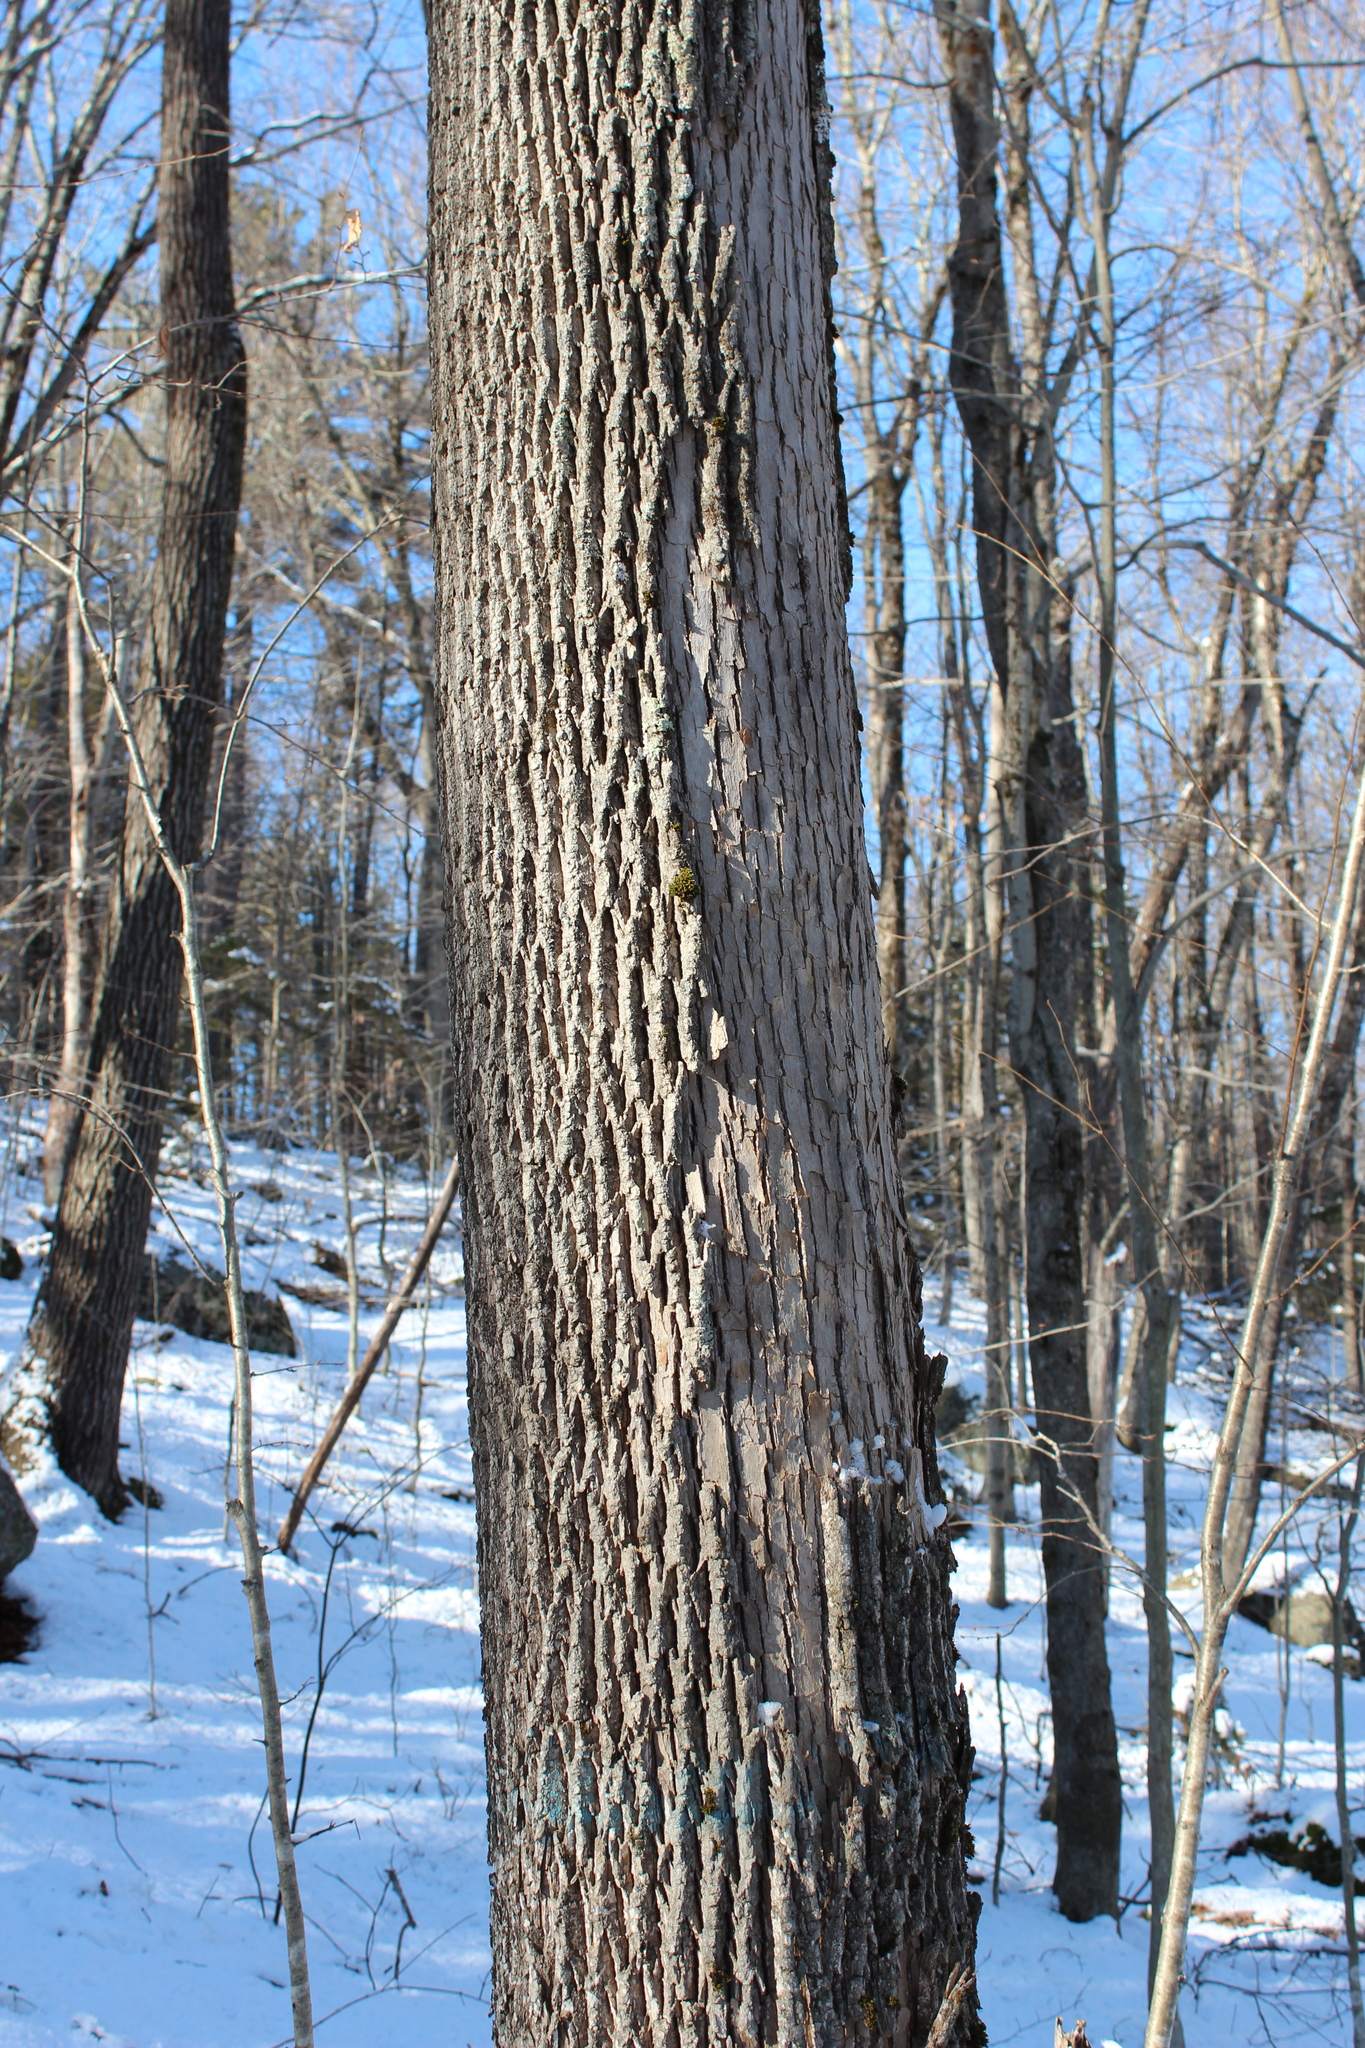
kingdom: Plantae
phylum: Tracheophyta
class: Magnoliopsida
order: Lamiales
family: Oleaceae
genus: Fraxinus
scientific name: Fraxinus americana
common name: White ash
